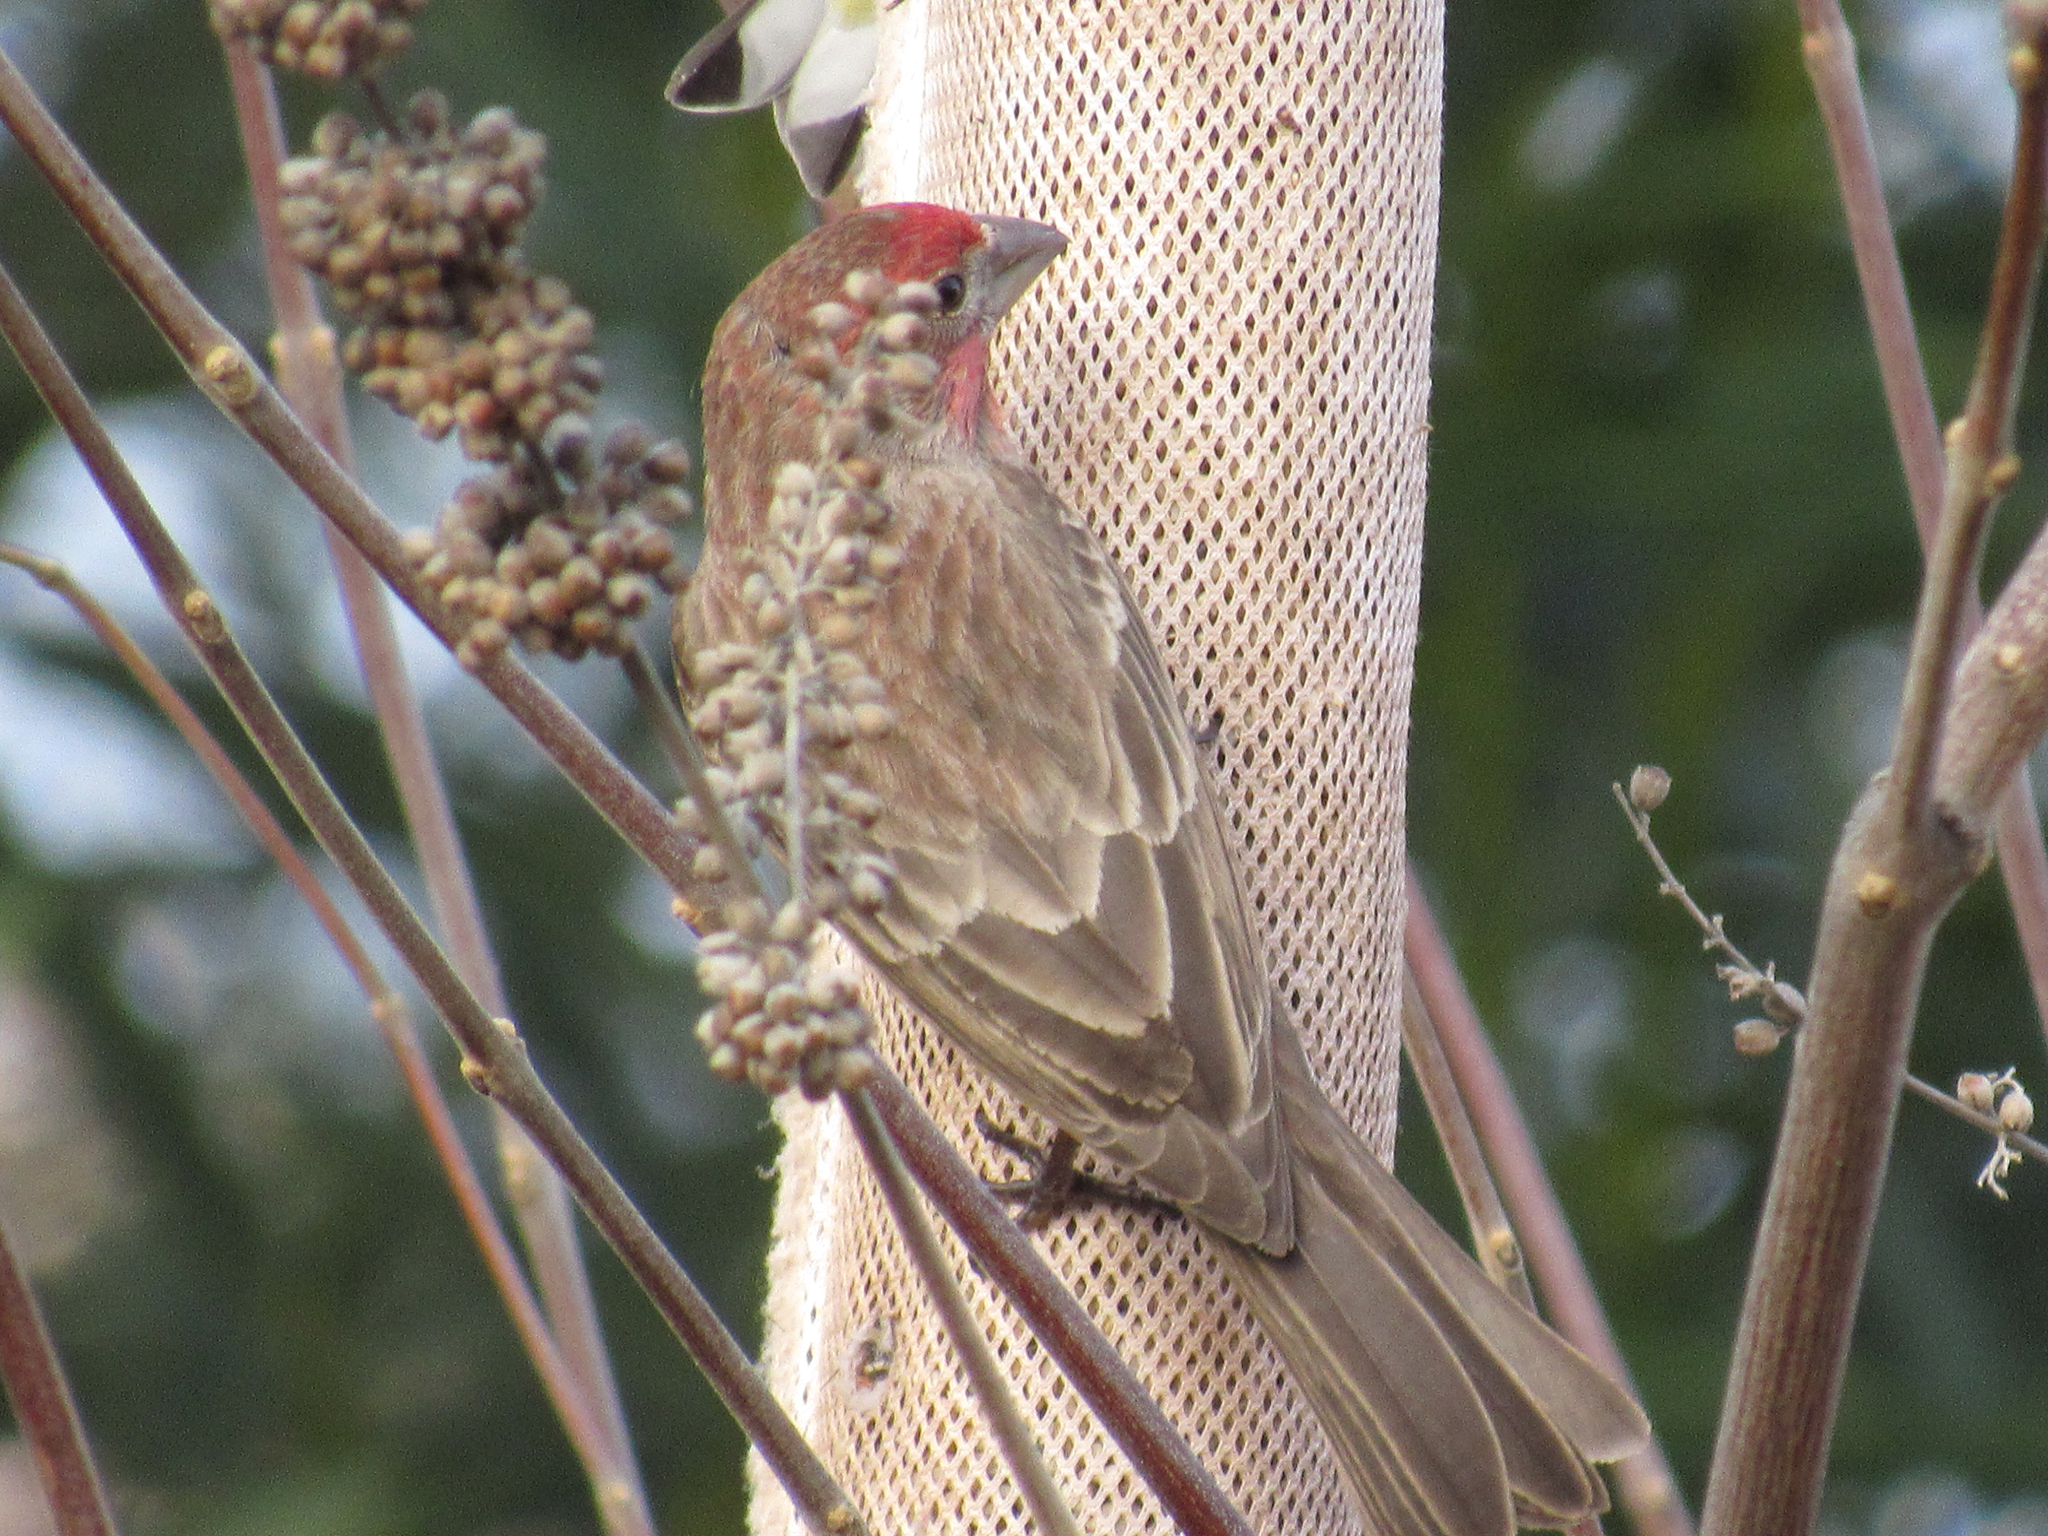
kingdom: Animalia
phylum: Chordata
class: Aves
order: Passeriformes
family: Fringillidae
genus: Haemorhous
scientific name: Haemorhous mexicanus
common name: House finch
